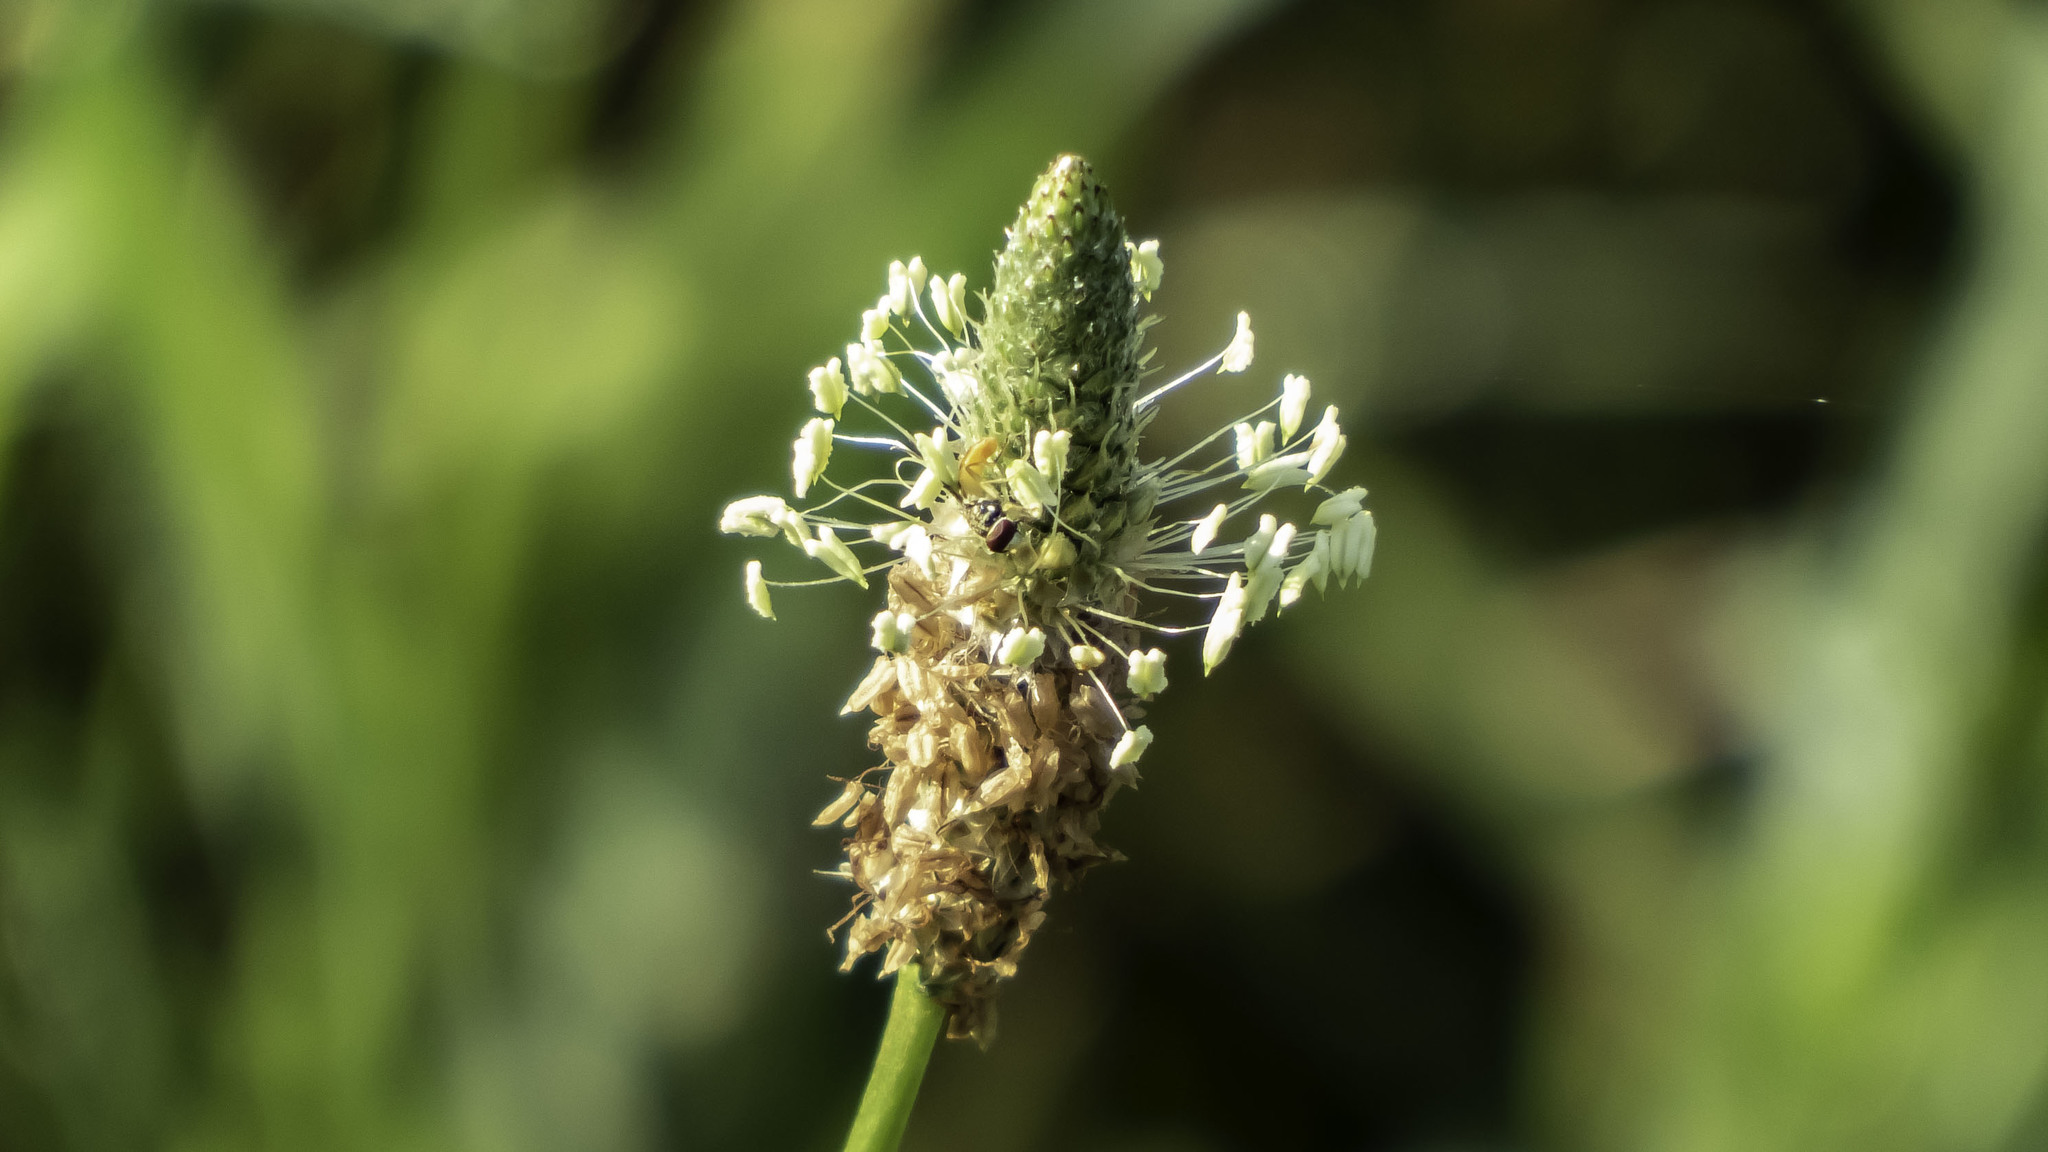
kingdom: Plantae
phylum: Tracheophyta
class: Magnoliopsida
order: Lamiales
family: Plantaginaceae
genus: Plantago
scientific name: Plantago lanceolata
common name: Ribwort plantain
